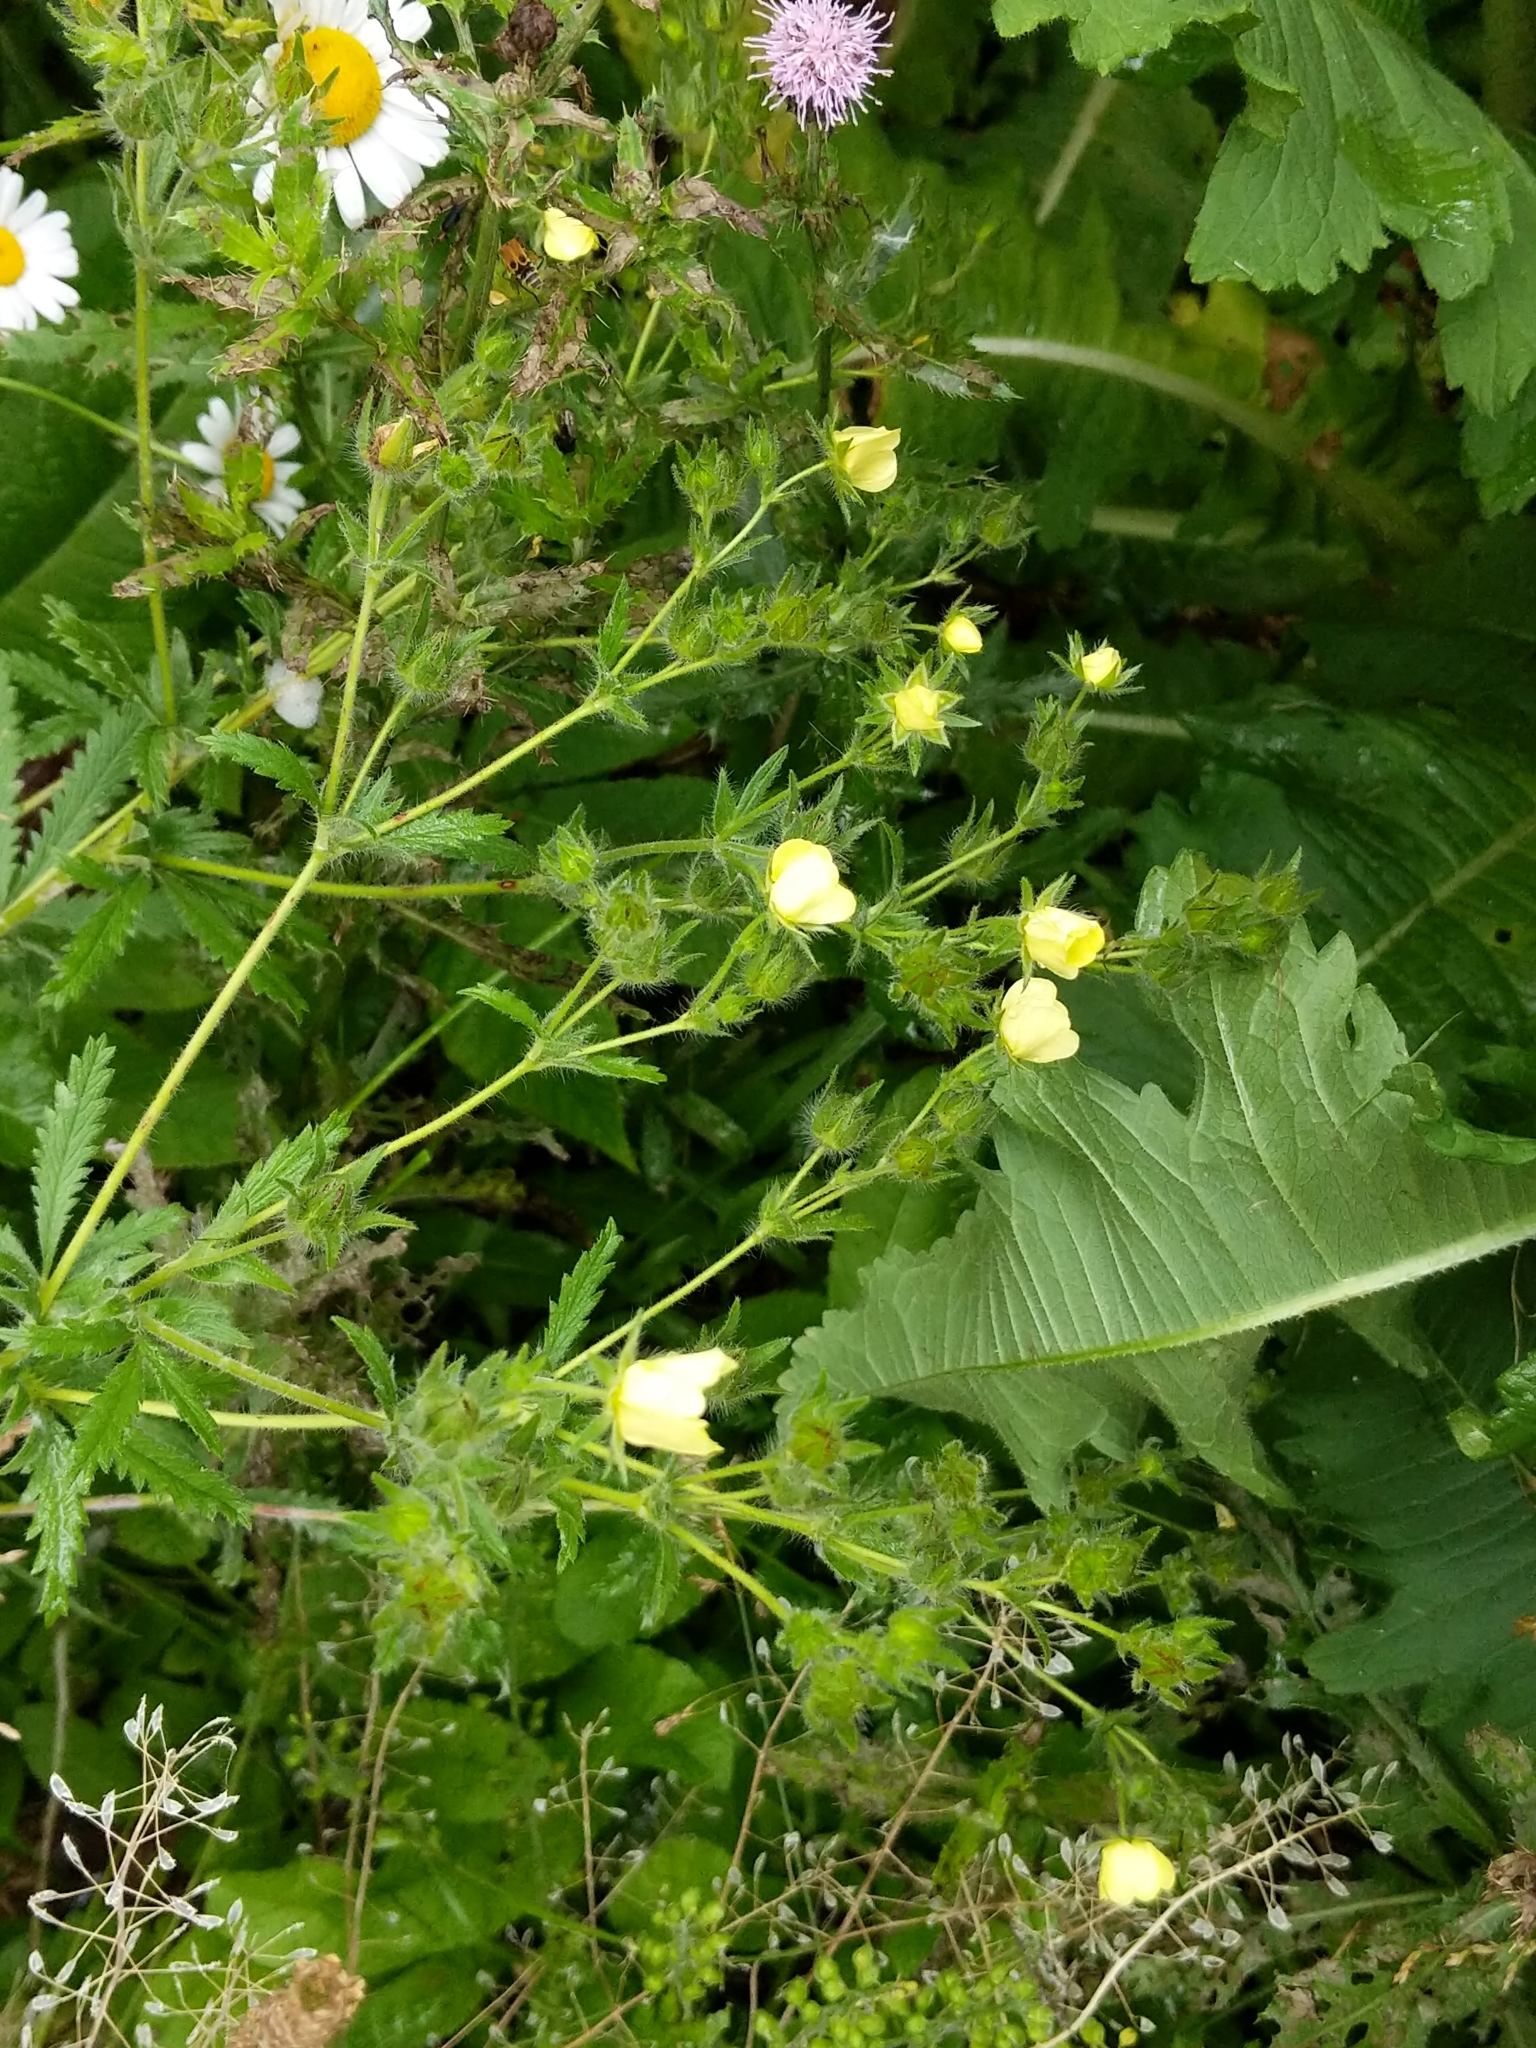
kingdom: Plantae
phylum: Tracheophyta
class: Magnoliopsida
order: Rosales
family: Rosaceae
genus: Potentilla
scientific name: Potentilla recta
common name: Sulphur cinquefoil
